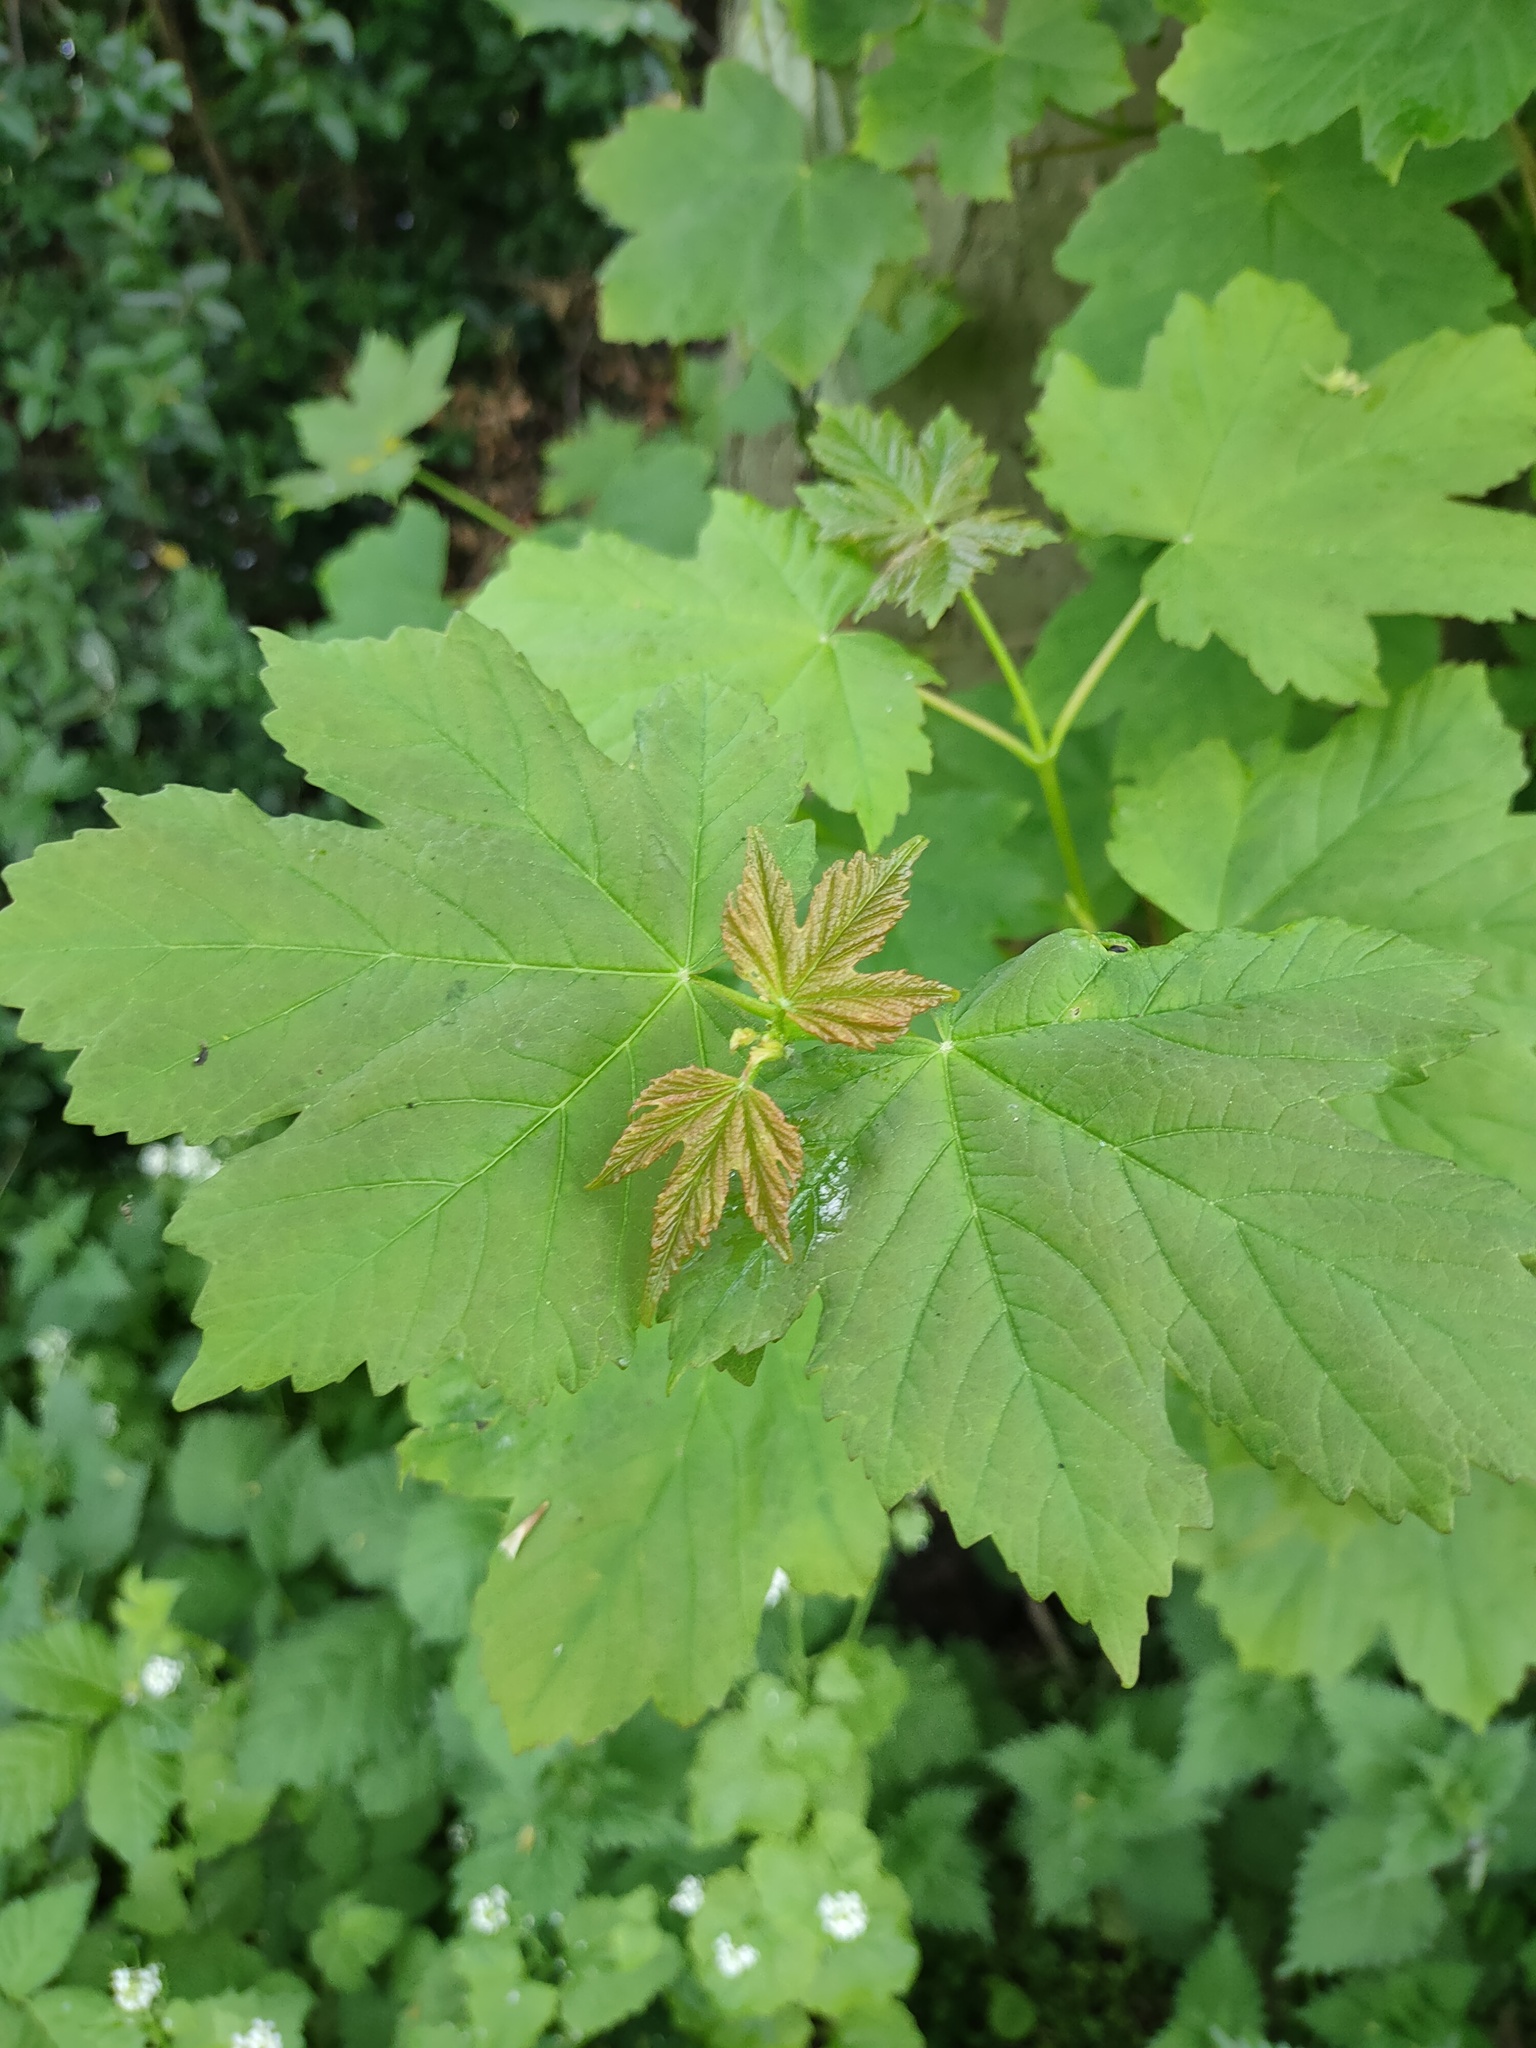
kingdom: Plantae
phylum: Tracheophyta
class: Magnoliopsida
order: Sapindales
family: Sapindaceae
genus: Acer
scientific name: Acer pseudoplatanus
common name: Sycamore
